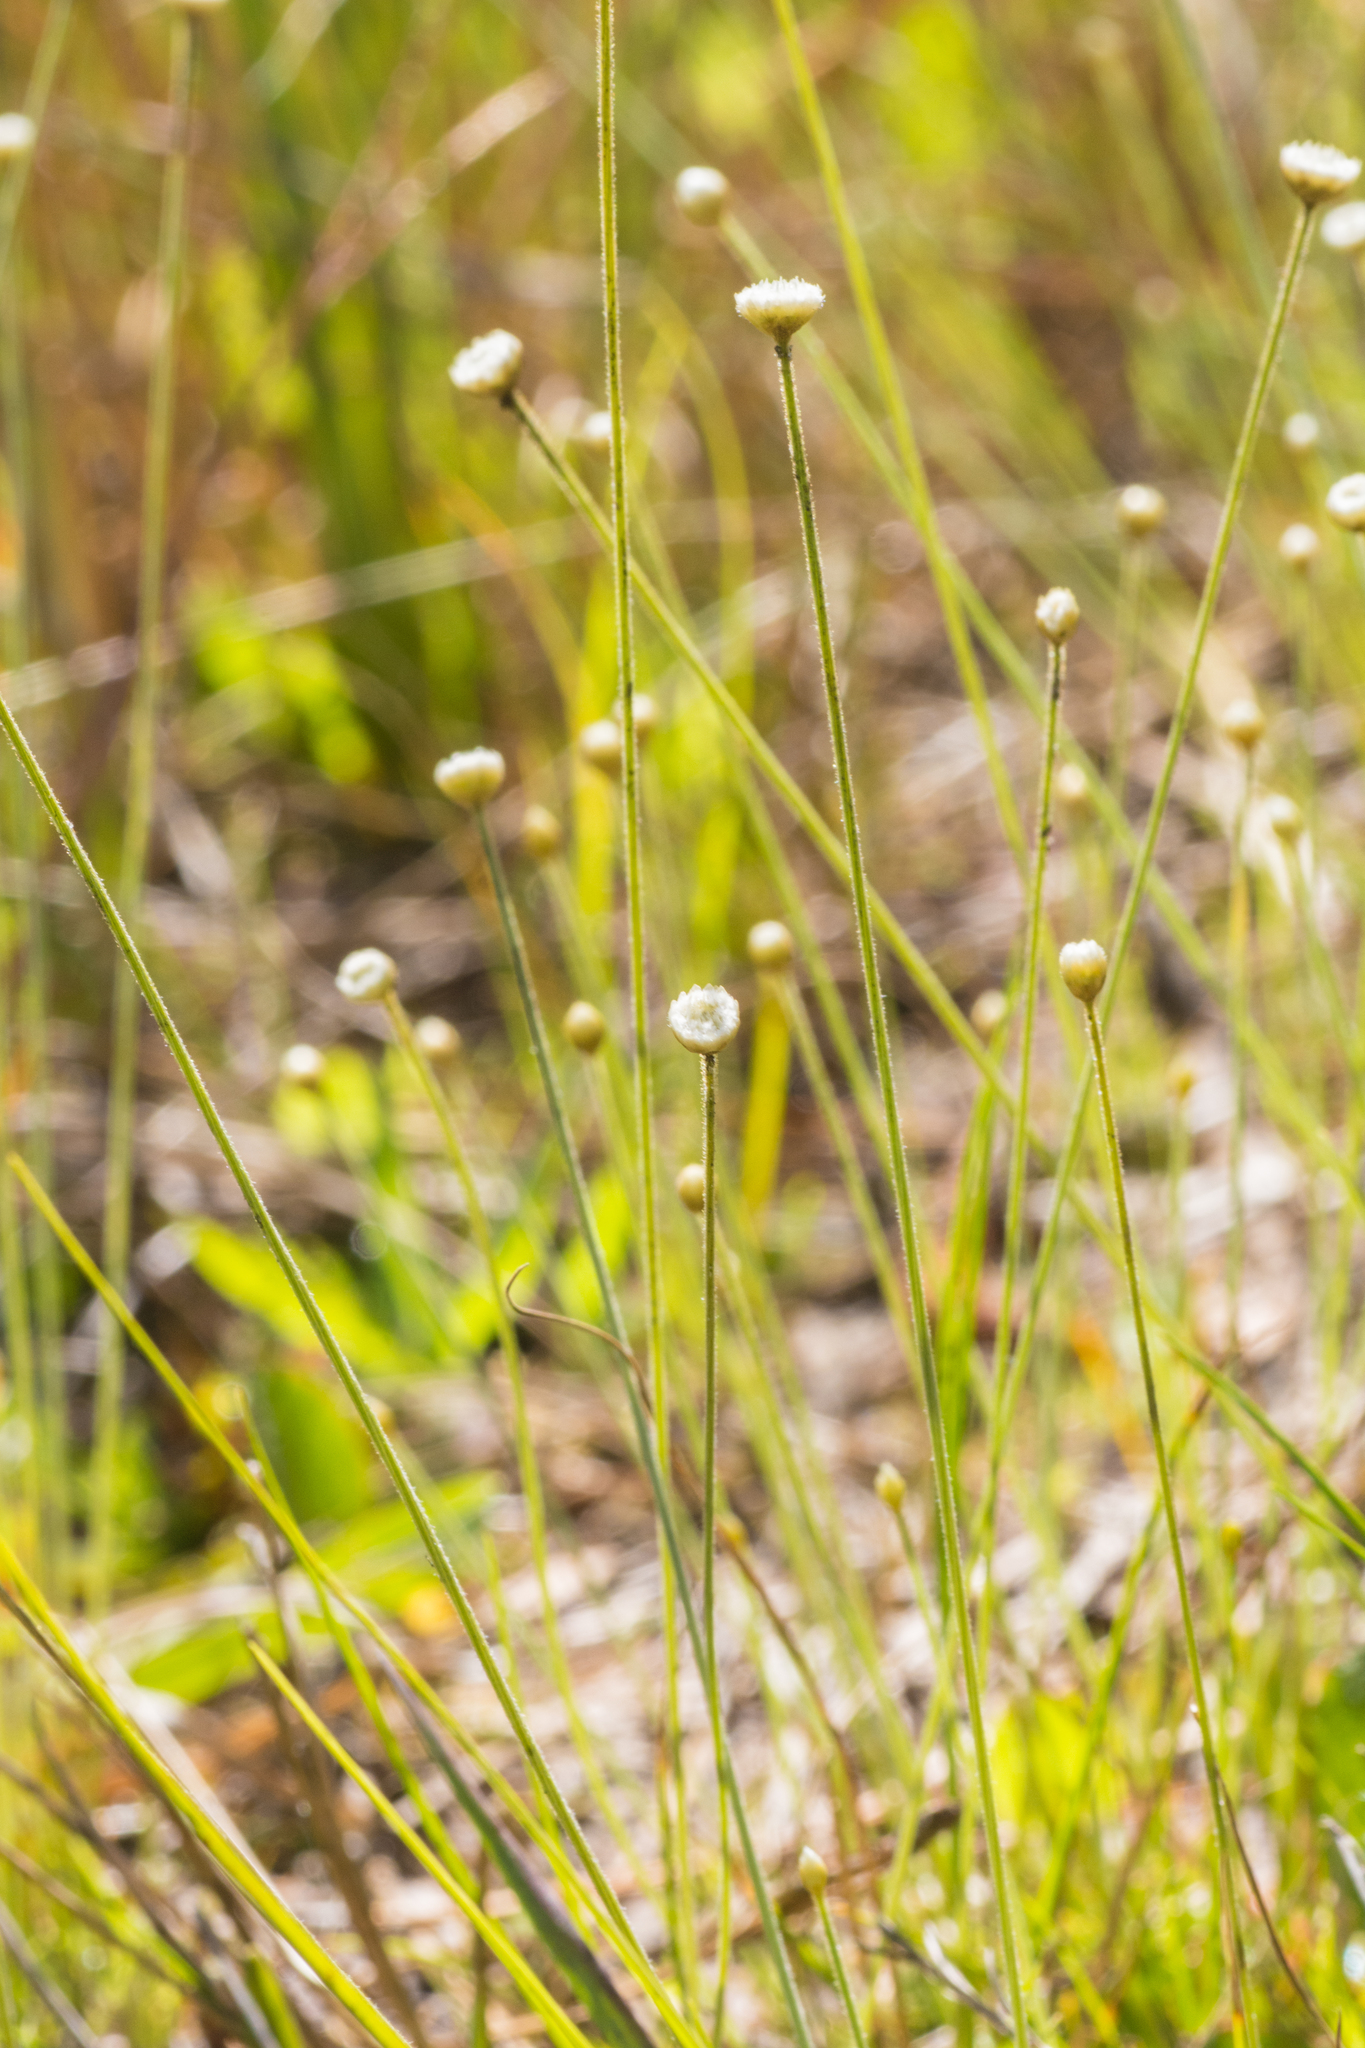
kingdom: Plantae
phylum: Tracheophyta
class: Liliopsida
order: Poales
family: Eriocaulaceae
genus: Syngonanthus
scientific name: Syngonanthus flavidulus
